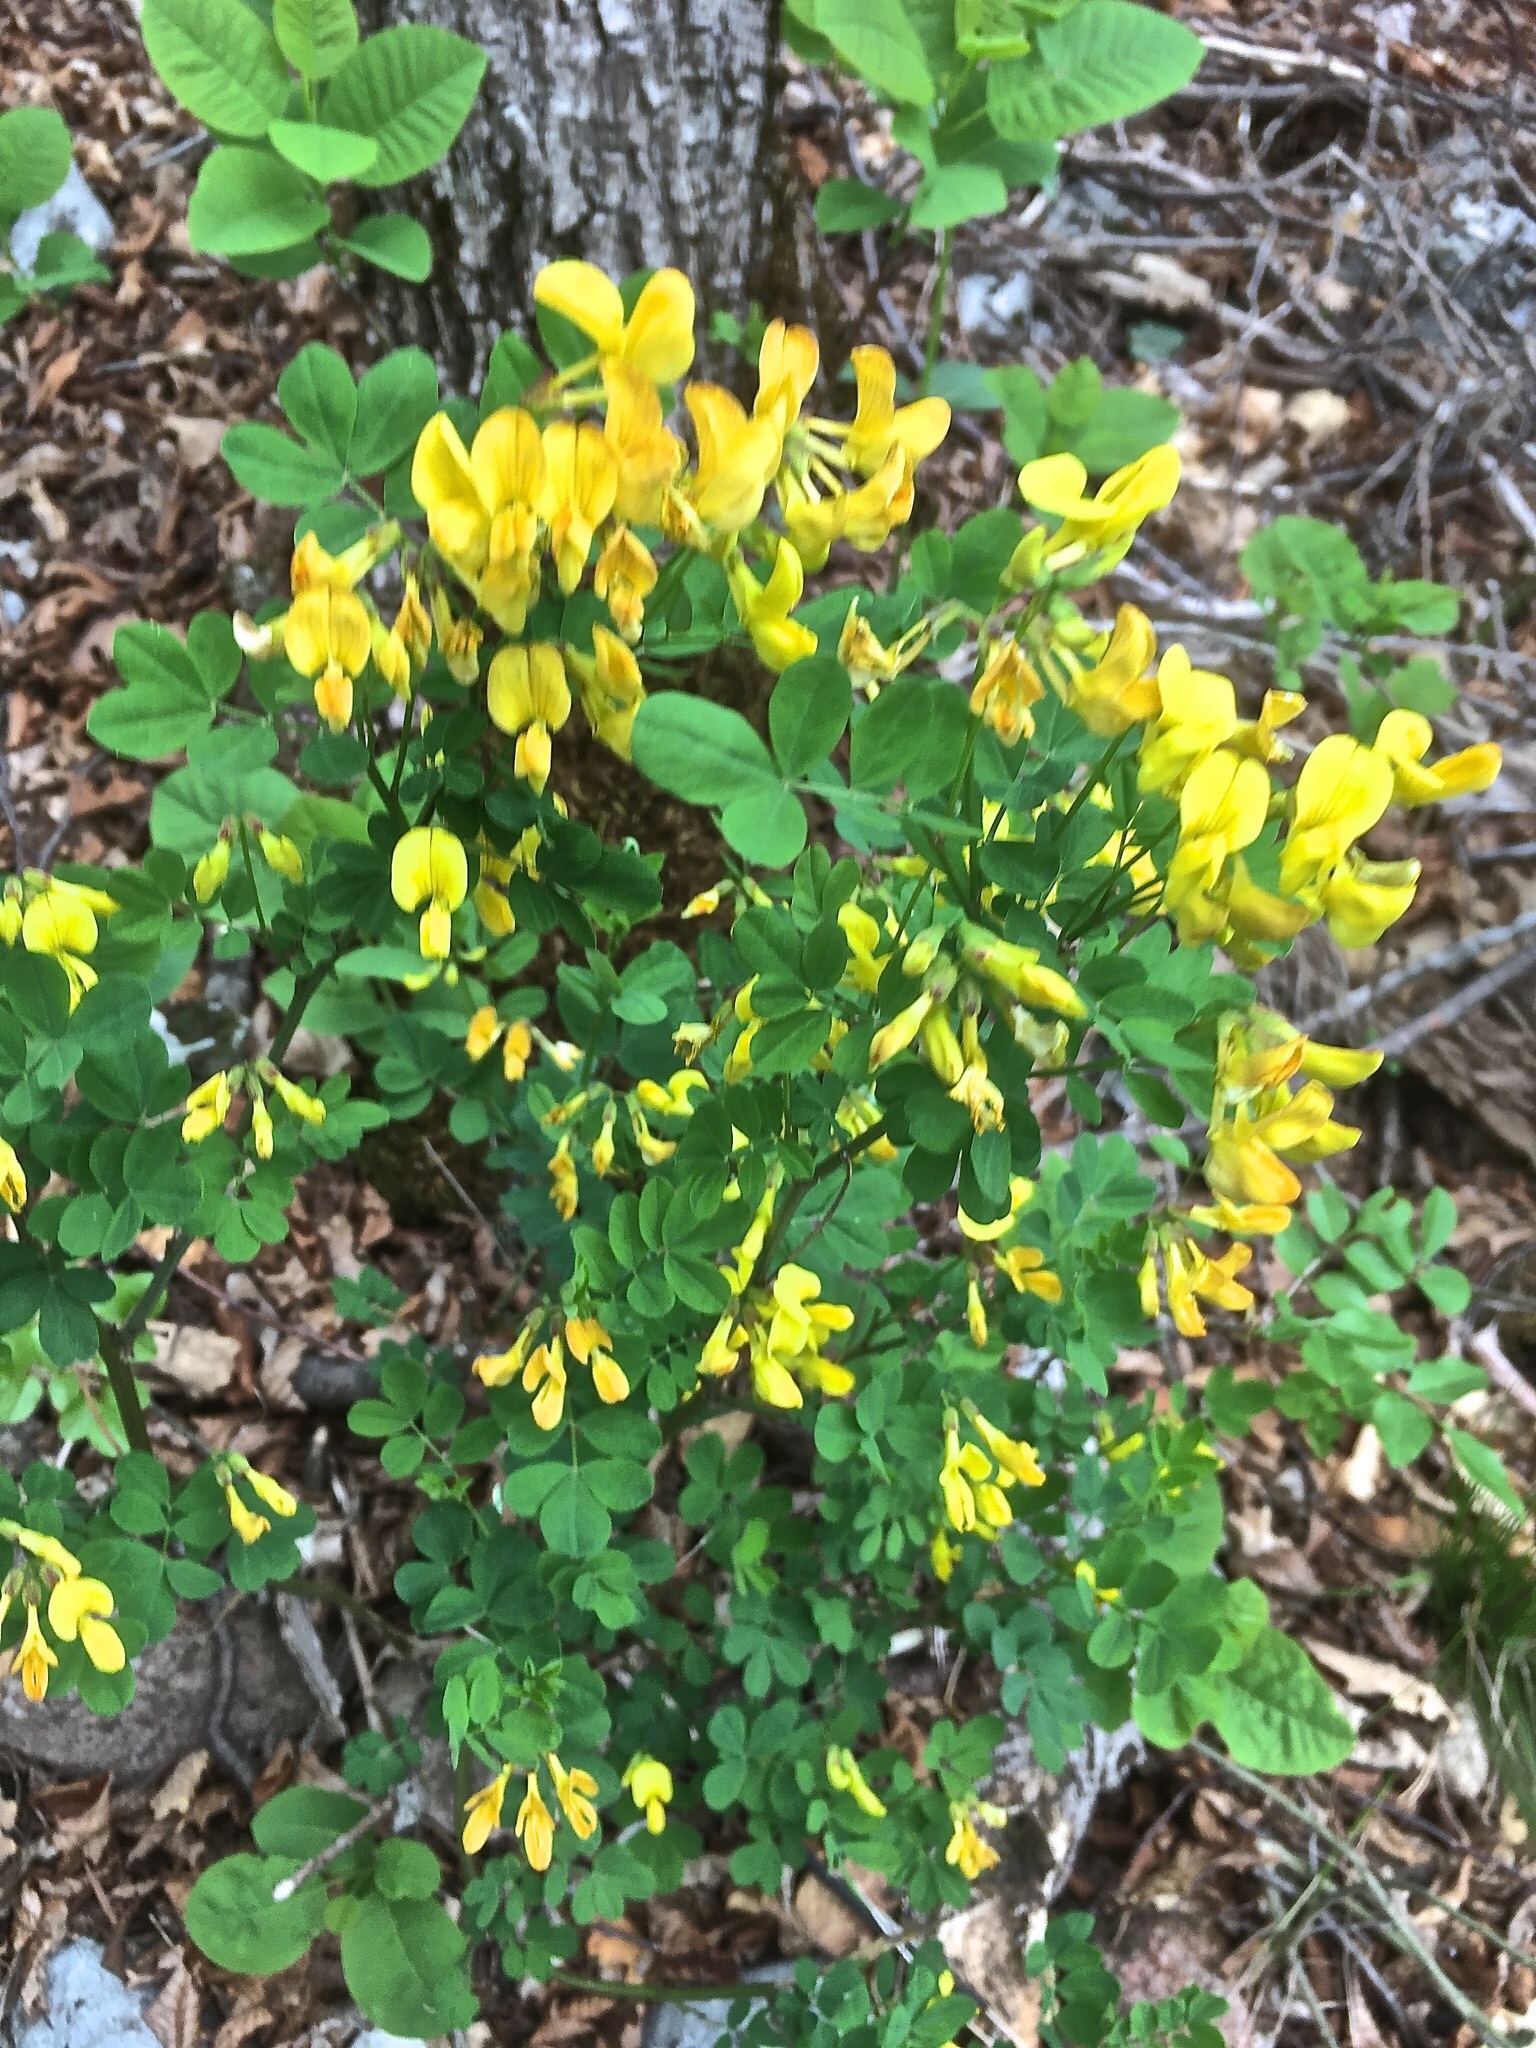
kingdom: Plantae
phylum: Tracheophyta
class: Magnoliopsida
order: Fabales
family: Fabaceae
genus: Hippocrepis
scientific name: Hippocrepis emerus
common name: Scorpion senna
